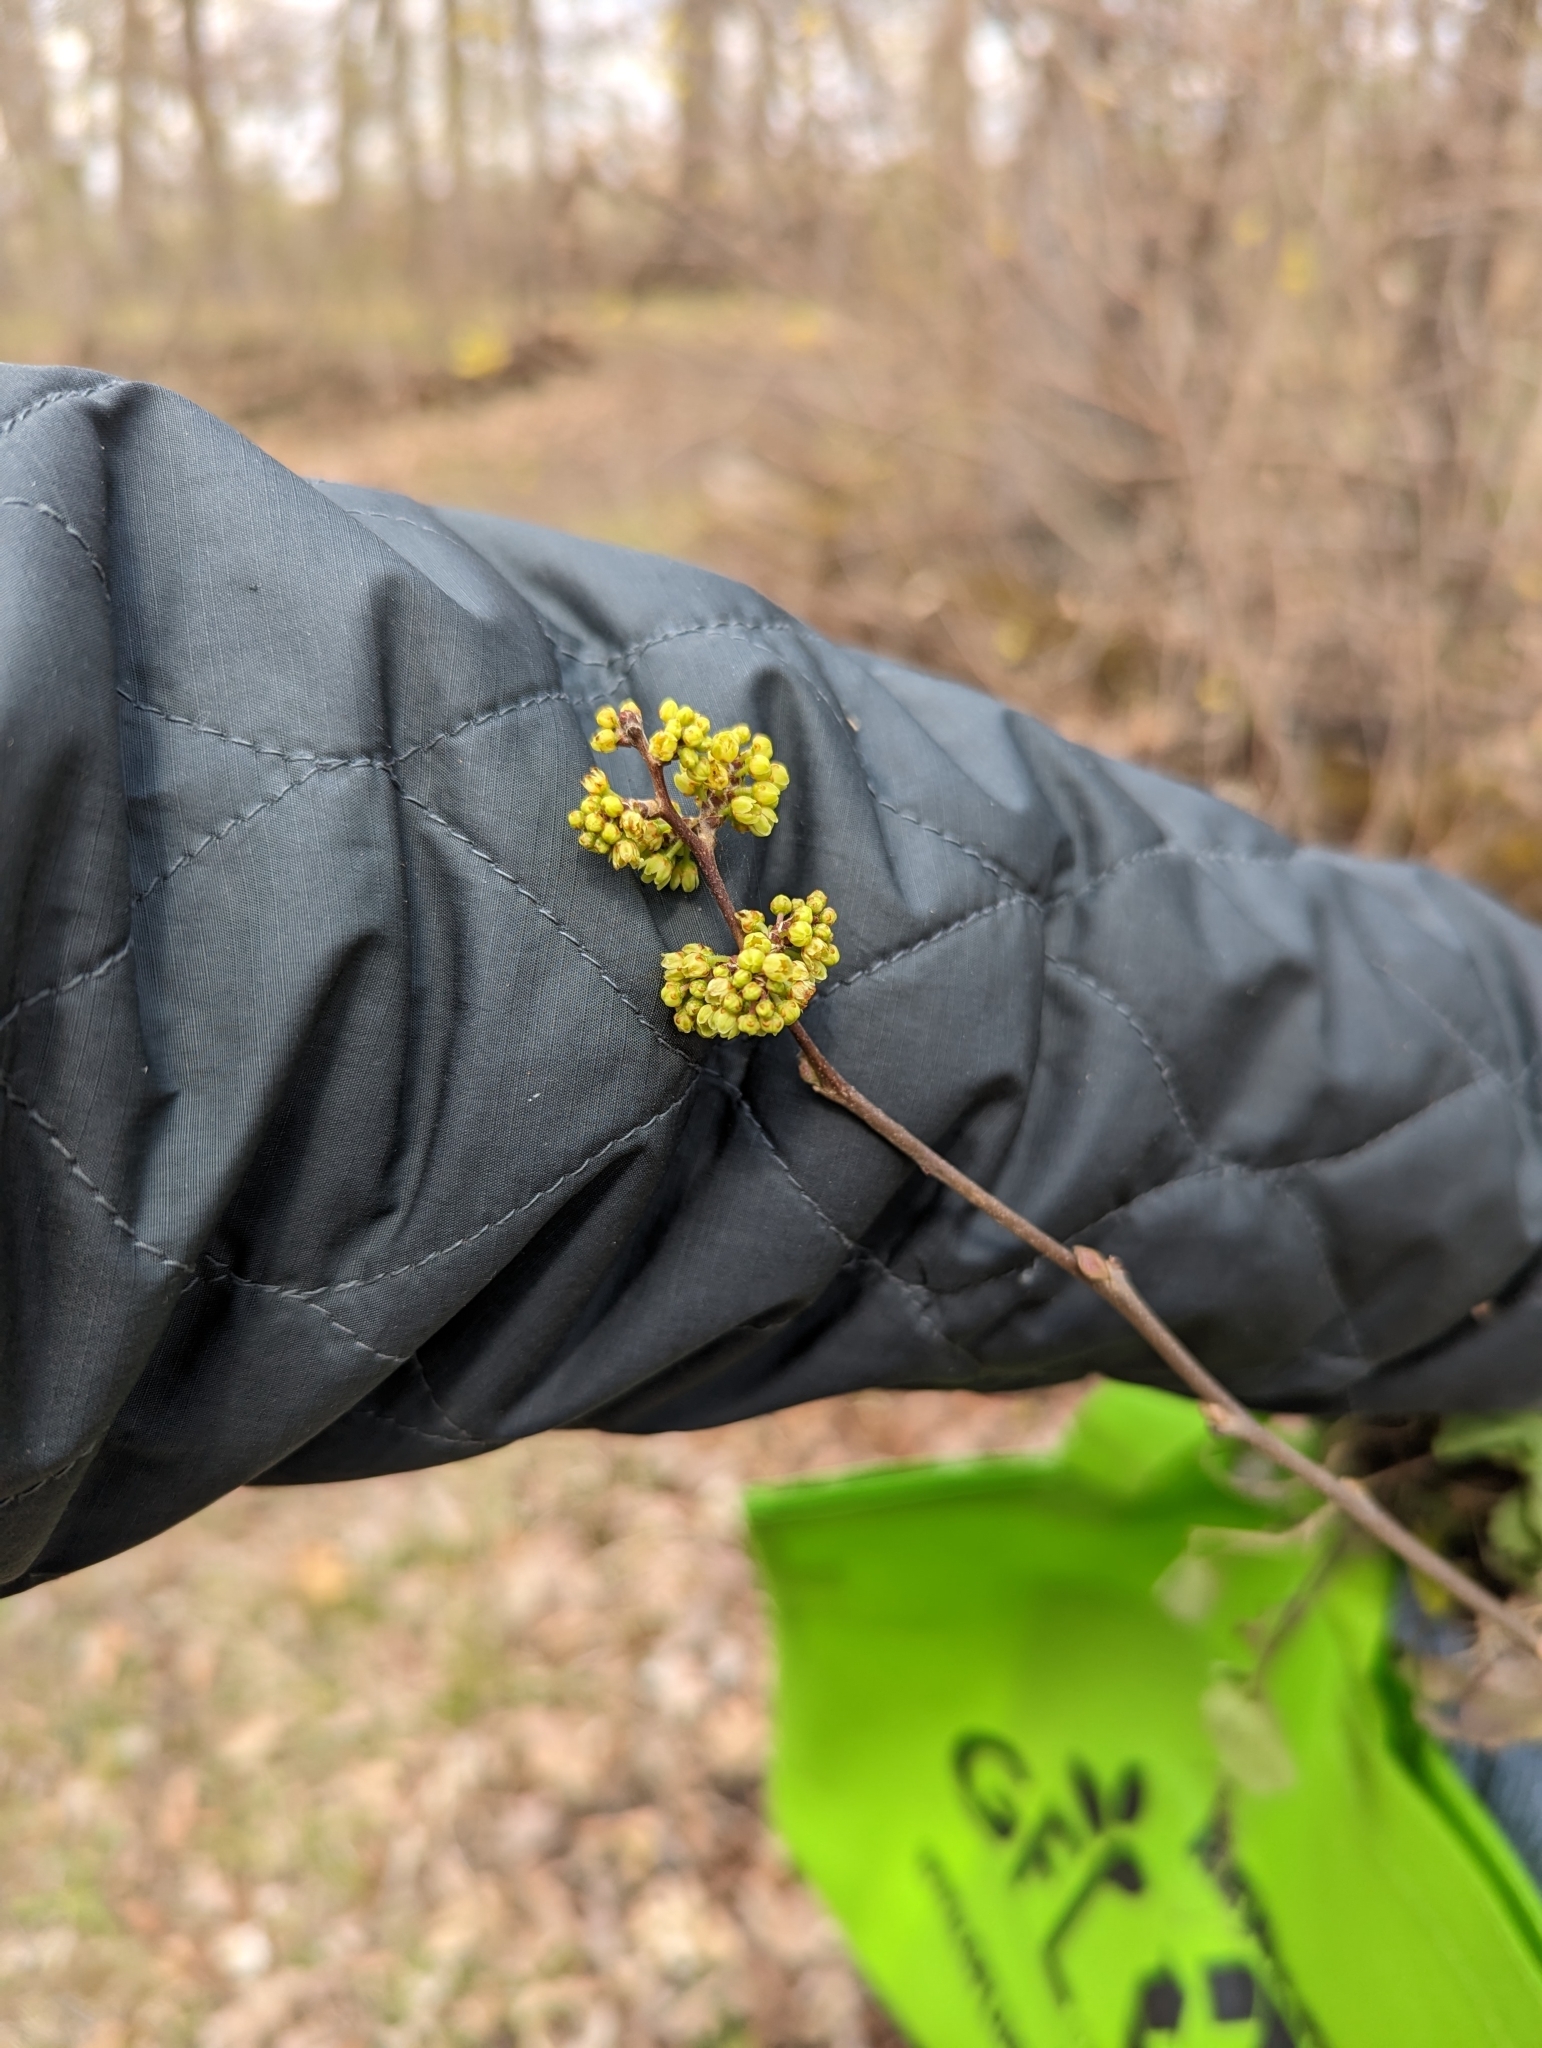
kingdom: Plantae
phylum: Tracheophyta
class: Magnoliopsida
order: Laurales
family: Lauraceae
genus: Lindera
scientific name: Lindera benzoin
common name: Spicebush
